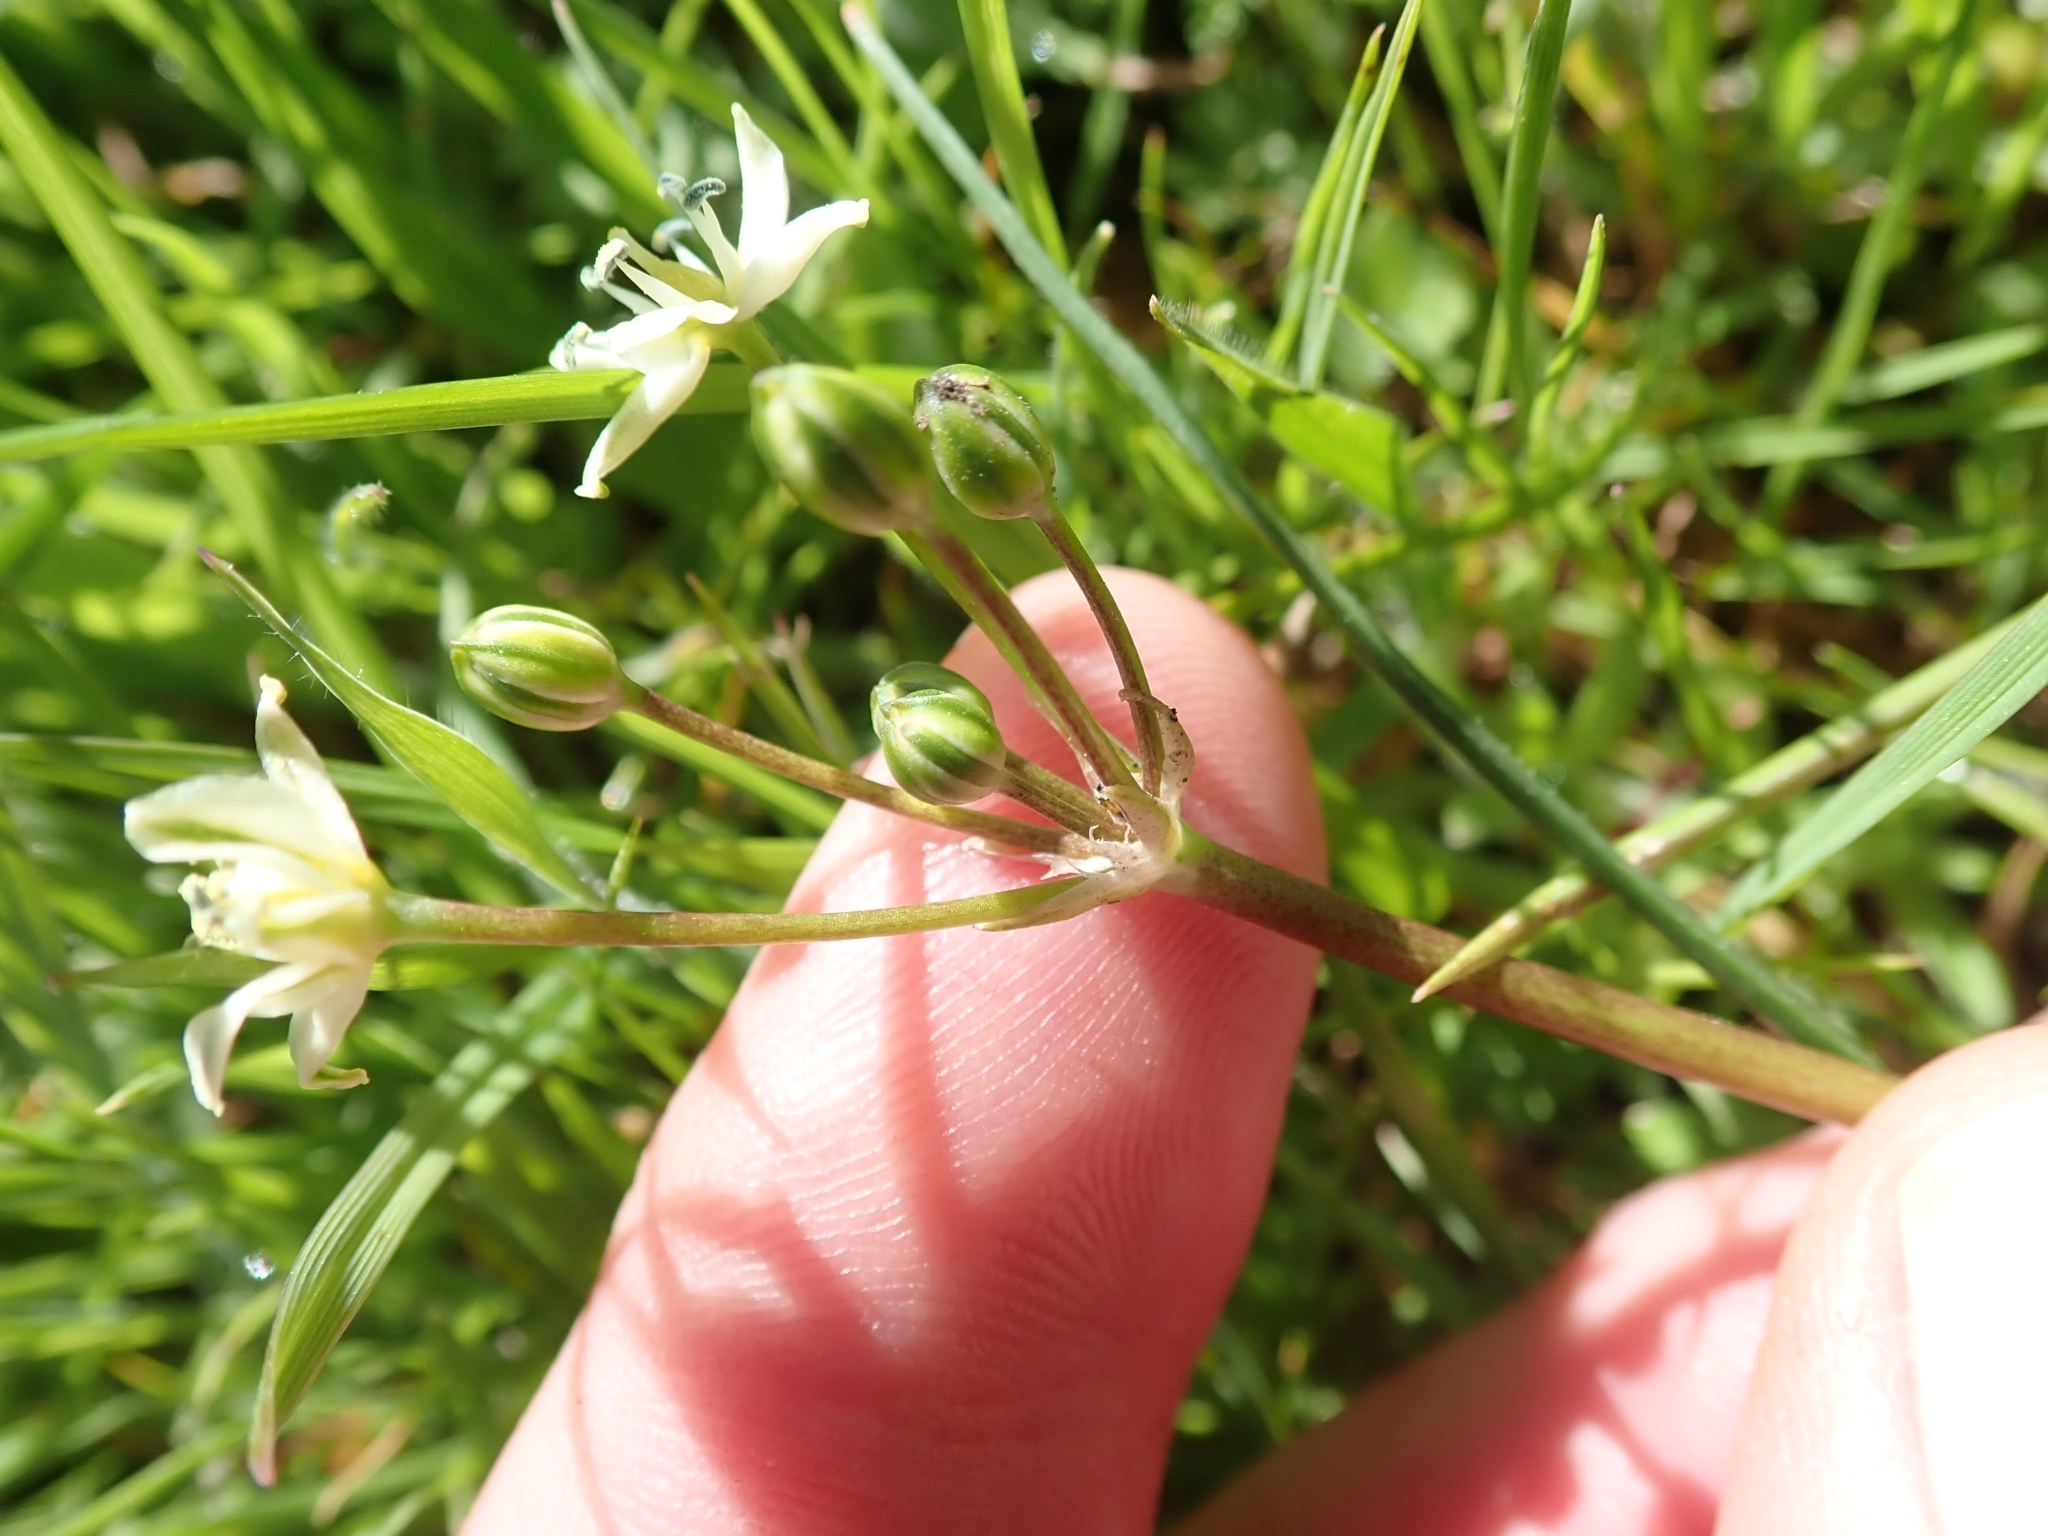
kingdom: Plantae
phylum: Tracheophyta
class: Liliopsida
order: Asparagales
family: Asparagaceae
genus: Muilla
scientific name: Muilla maritima
